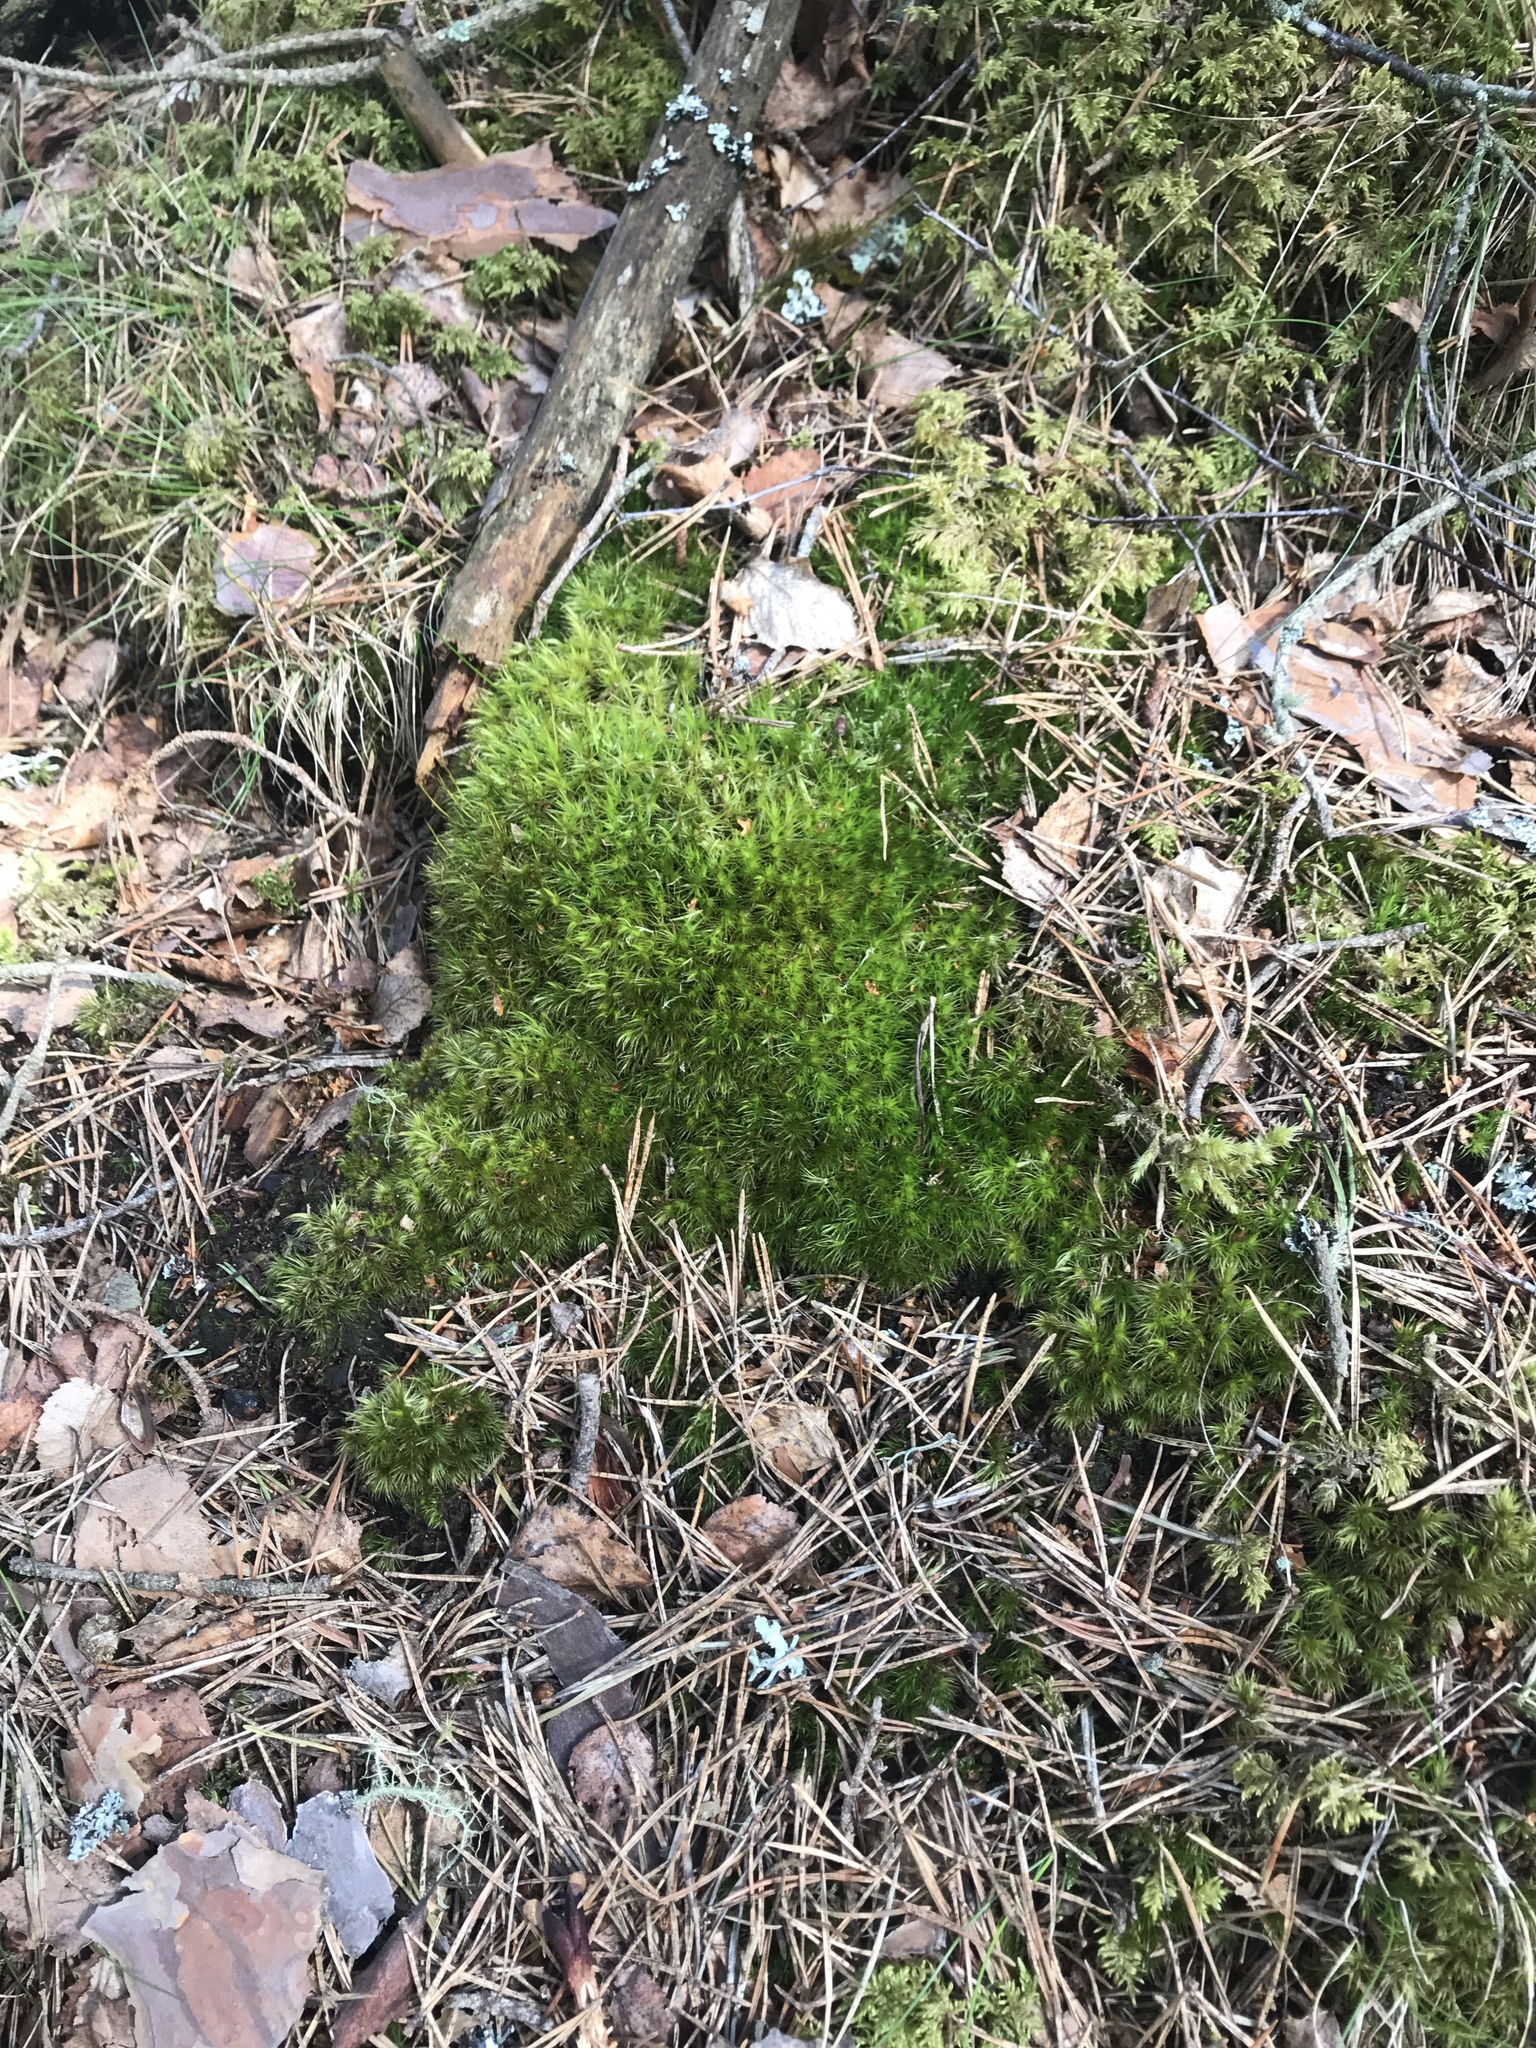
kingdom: Plantae
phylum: Bryophyta
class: Bryopsida
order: Dicranales
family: Dicranaceae
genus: Dicranum
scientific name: Dicranum scoparium
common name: Broom fork-moss
